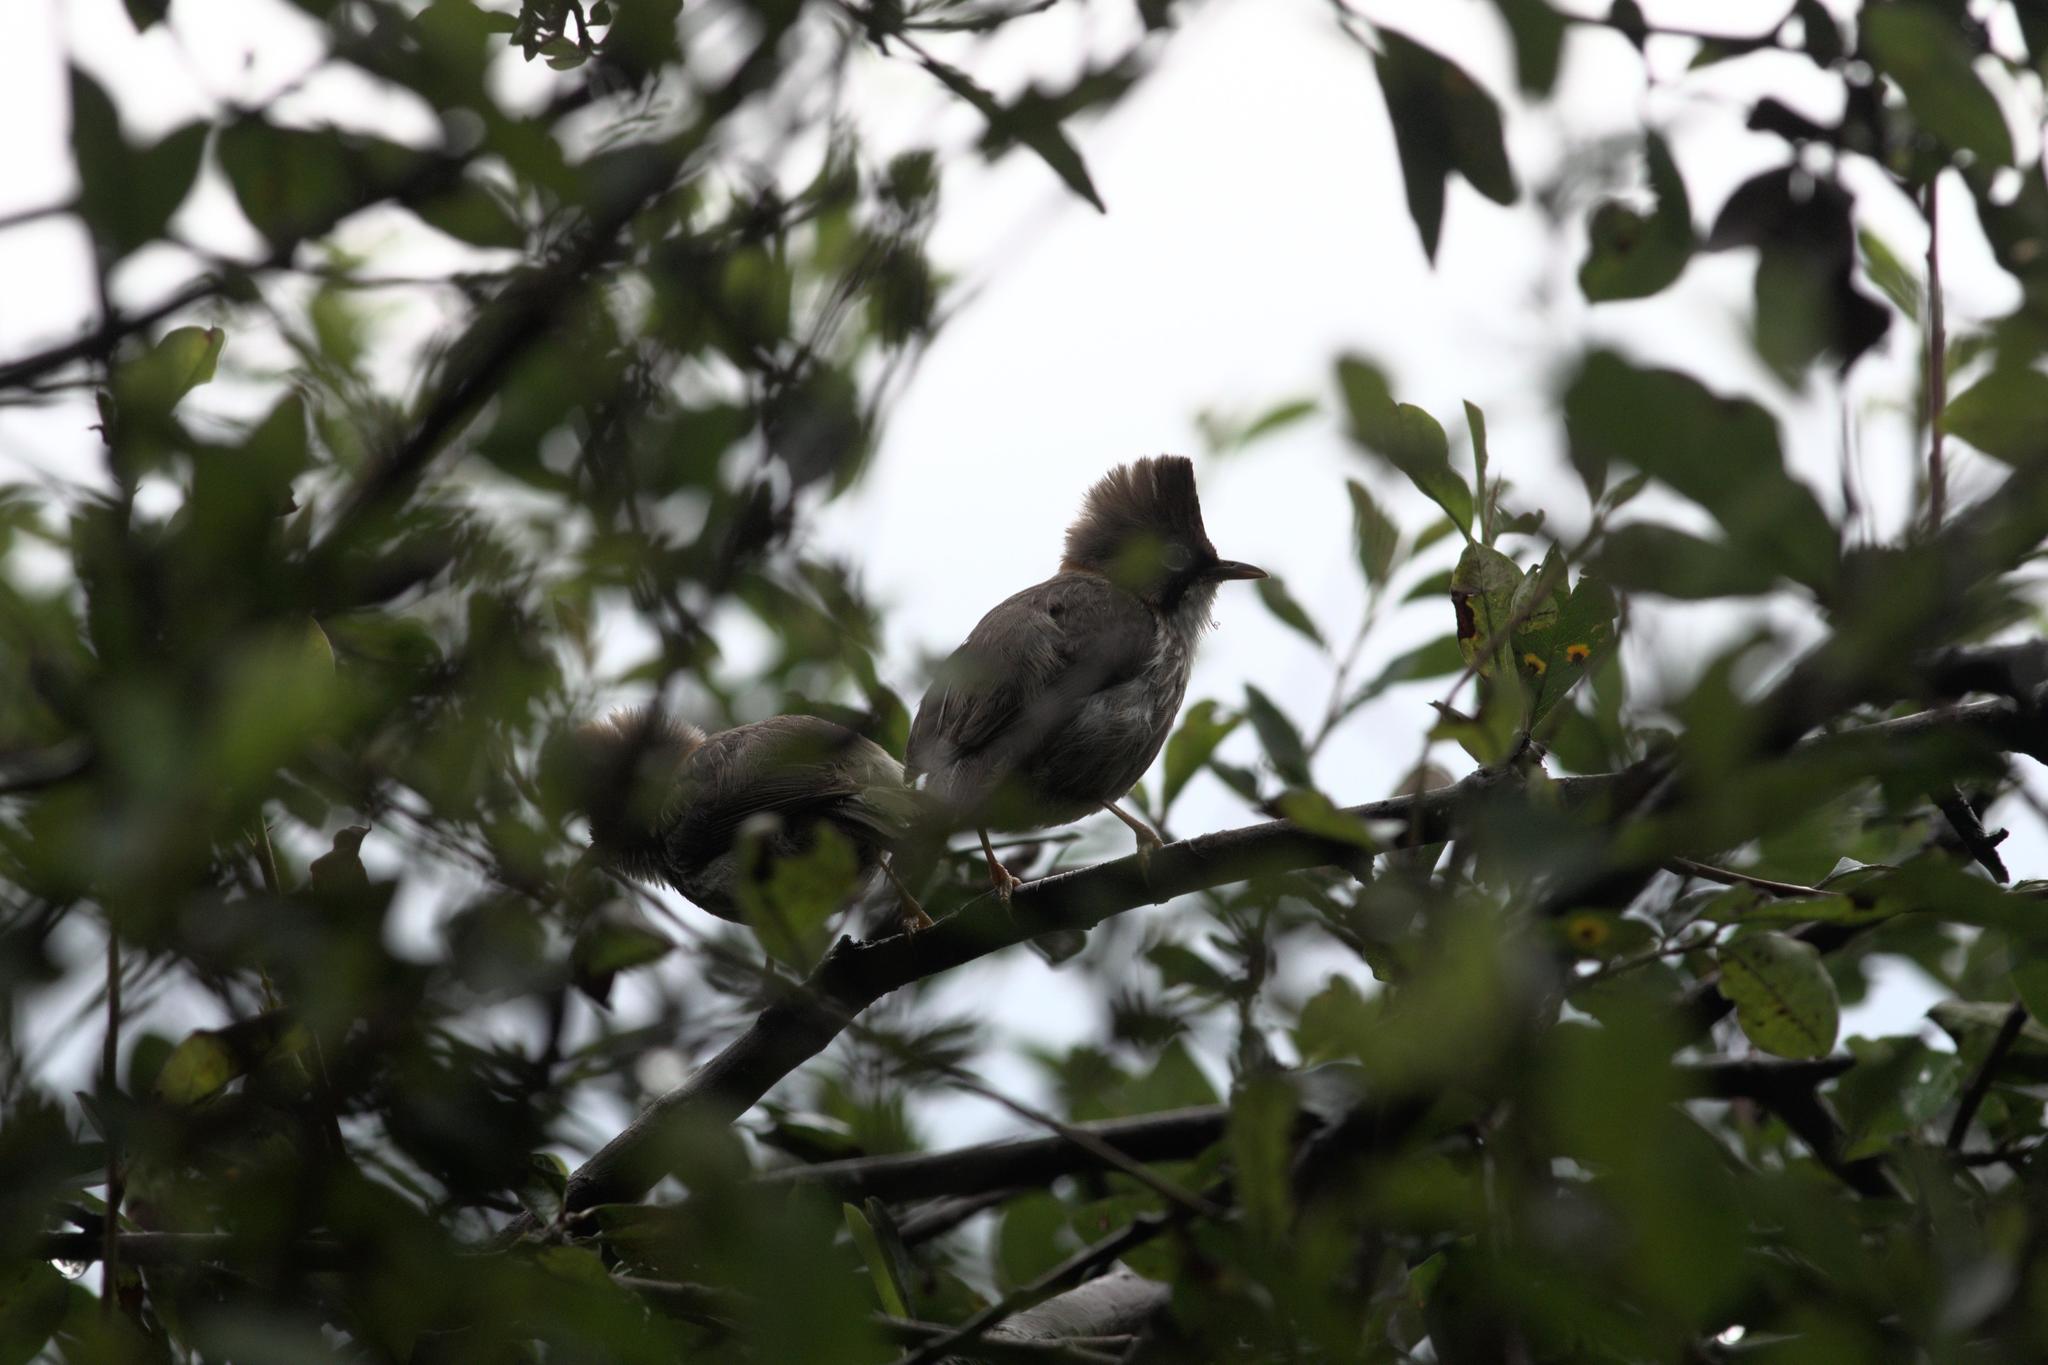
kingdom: Animalia
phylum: Chordata
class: Aves
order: Passeriformes
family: Zosteropidae
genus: Yuhina
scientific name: Yuhina flavicollis
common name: Whiskered yuhina
